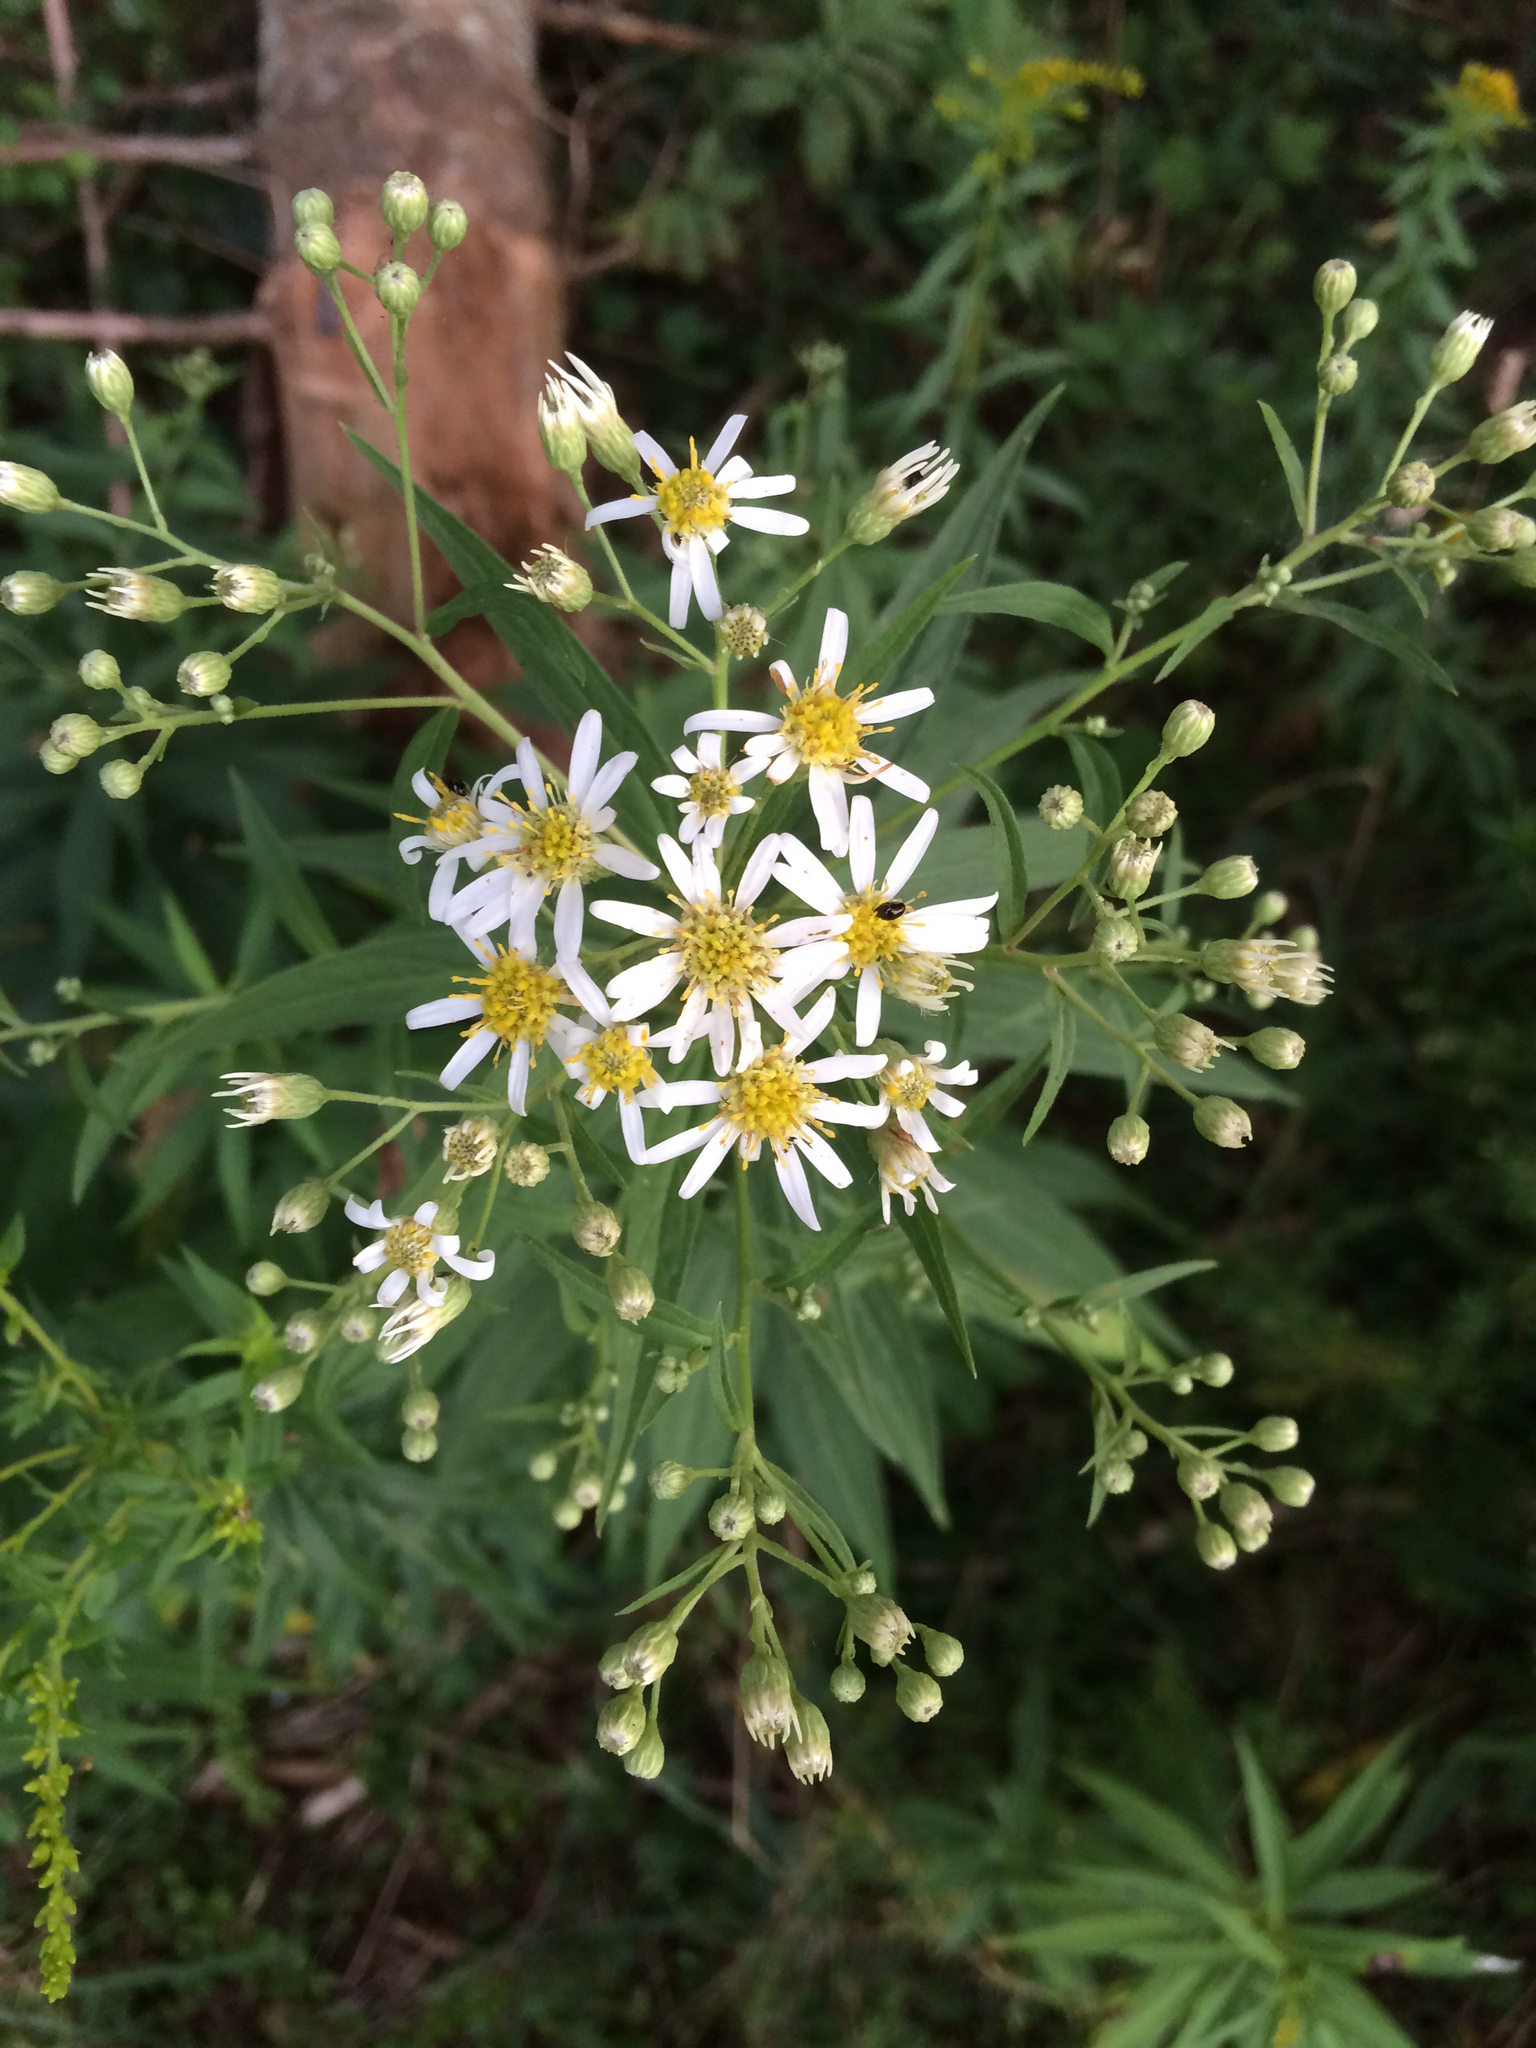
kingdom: Plantae
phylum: Tracheophyta
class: Magnoliopsida
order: Asterales
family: Asteraceae
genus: Doellingeria
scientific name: Doellingeria umbellata
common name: Flat-top white aster
